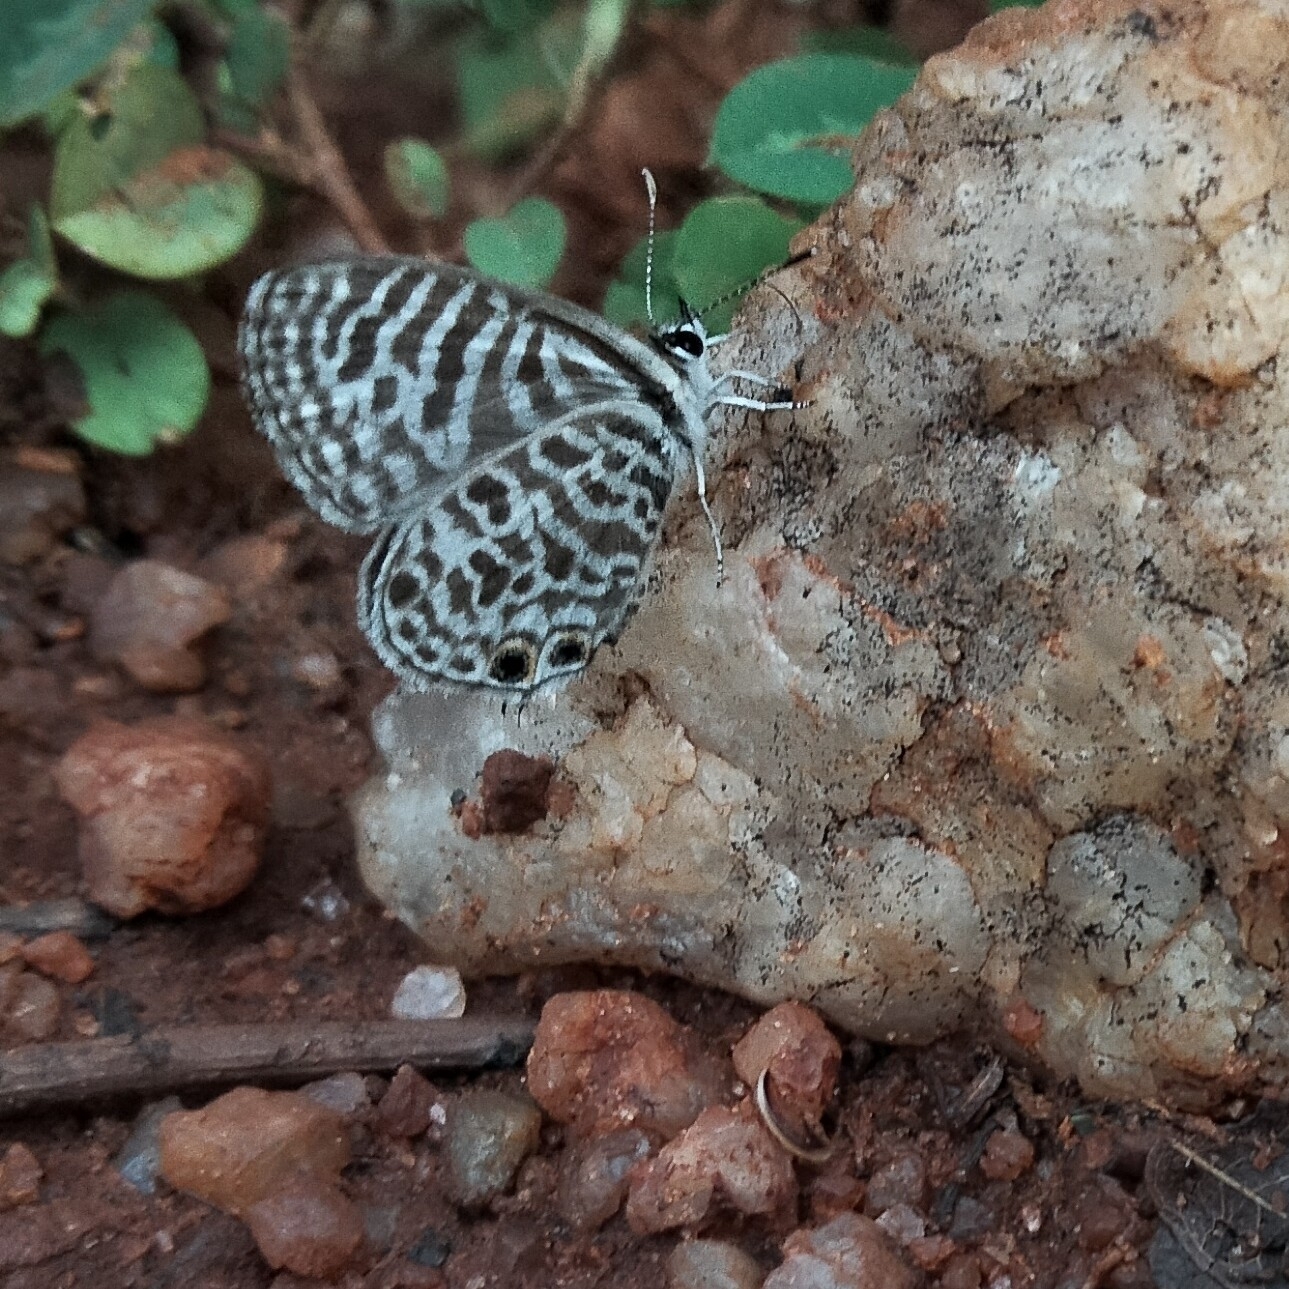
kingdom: Animalia
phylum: Arthropoda
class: Insecta
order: Lepidoptera
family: Lycaenidae
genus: Leptotes
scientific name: Leptotes plinius
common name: Zebra blue
